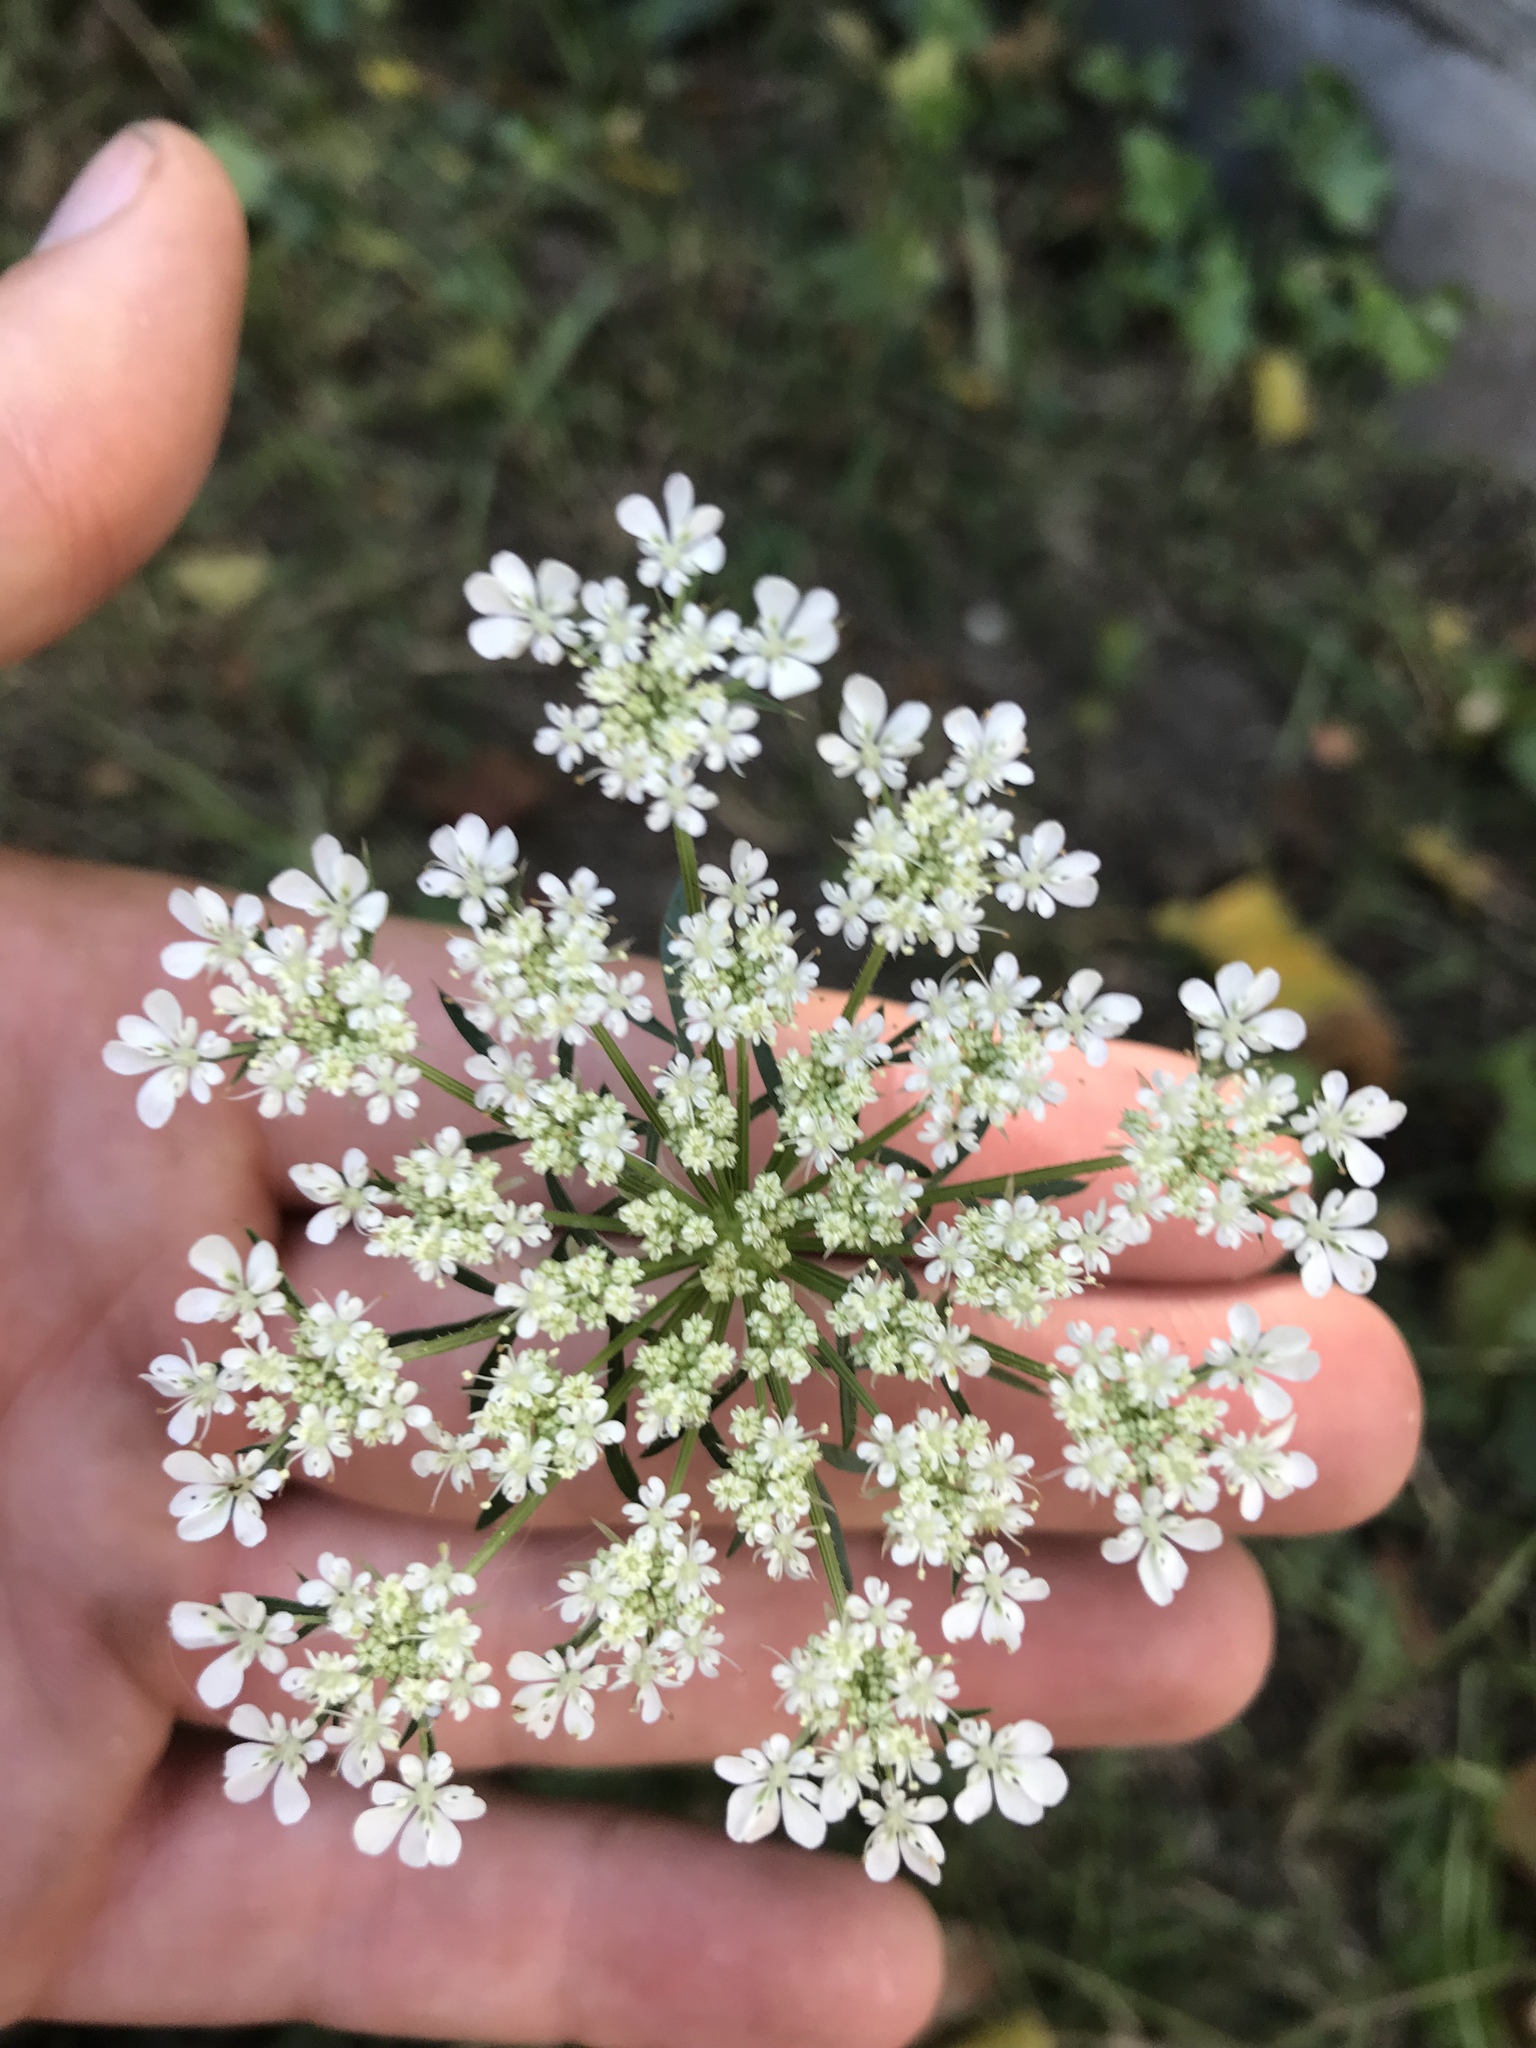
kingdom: Plantae
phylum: Tracheophyta
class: Magnoliopsida
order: Apiales
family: Apiaceae
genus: Daucus
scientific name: Daucus carota
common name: Wild carrot
